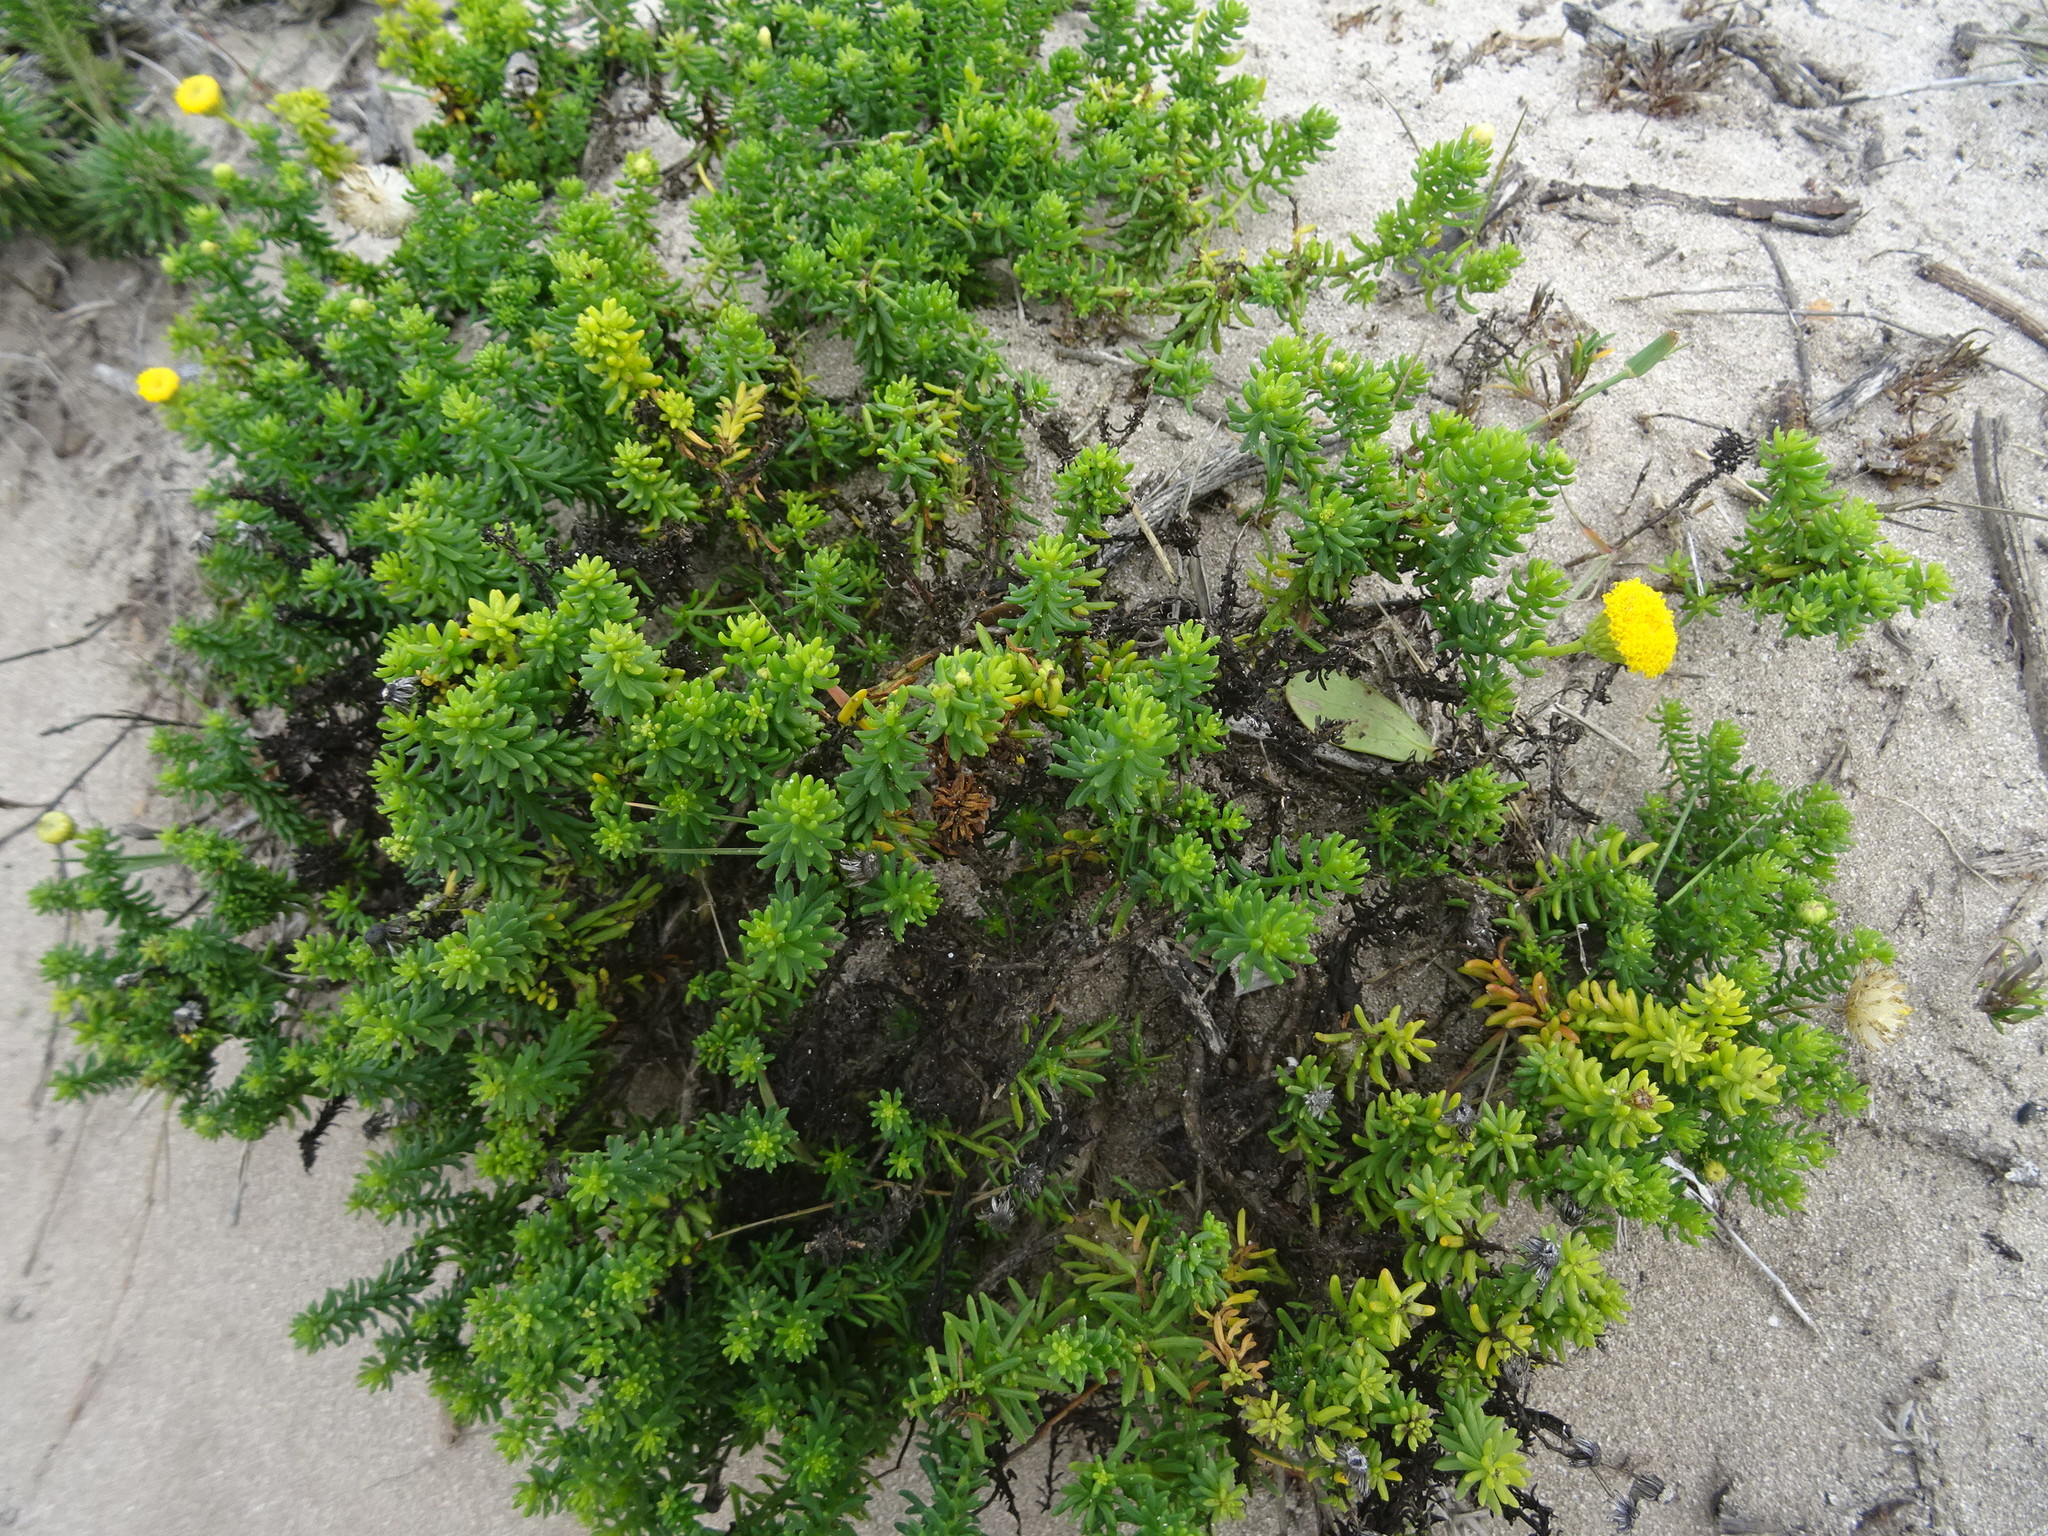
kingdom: Plantae
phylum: Tracheophyta
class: Magnoliopsida
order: Asterales
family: Asteraceae
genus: Chrysocoma
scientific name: Chrysocoma cernua
